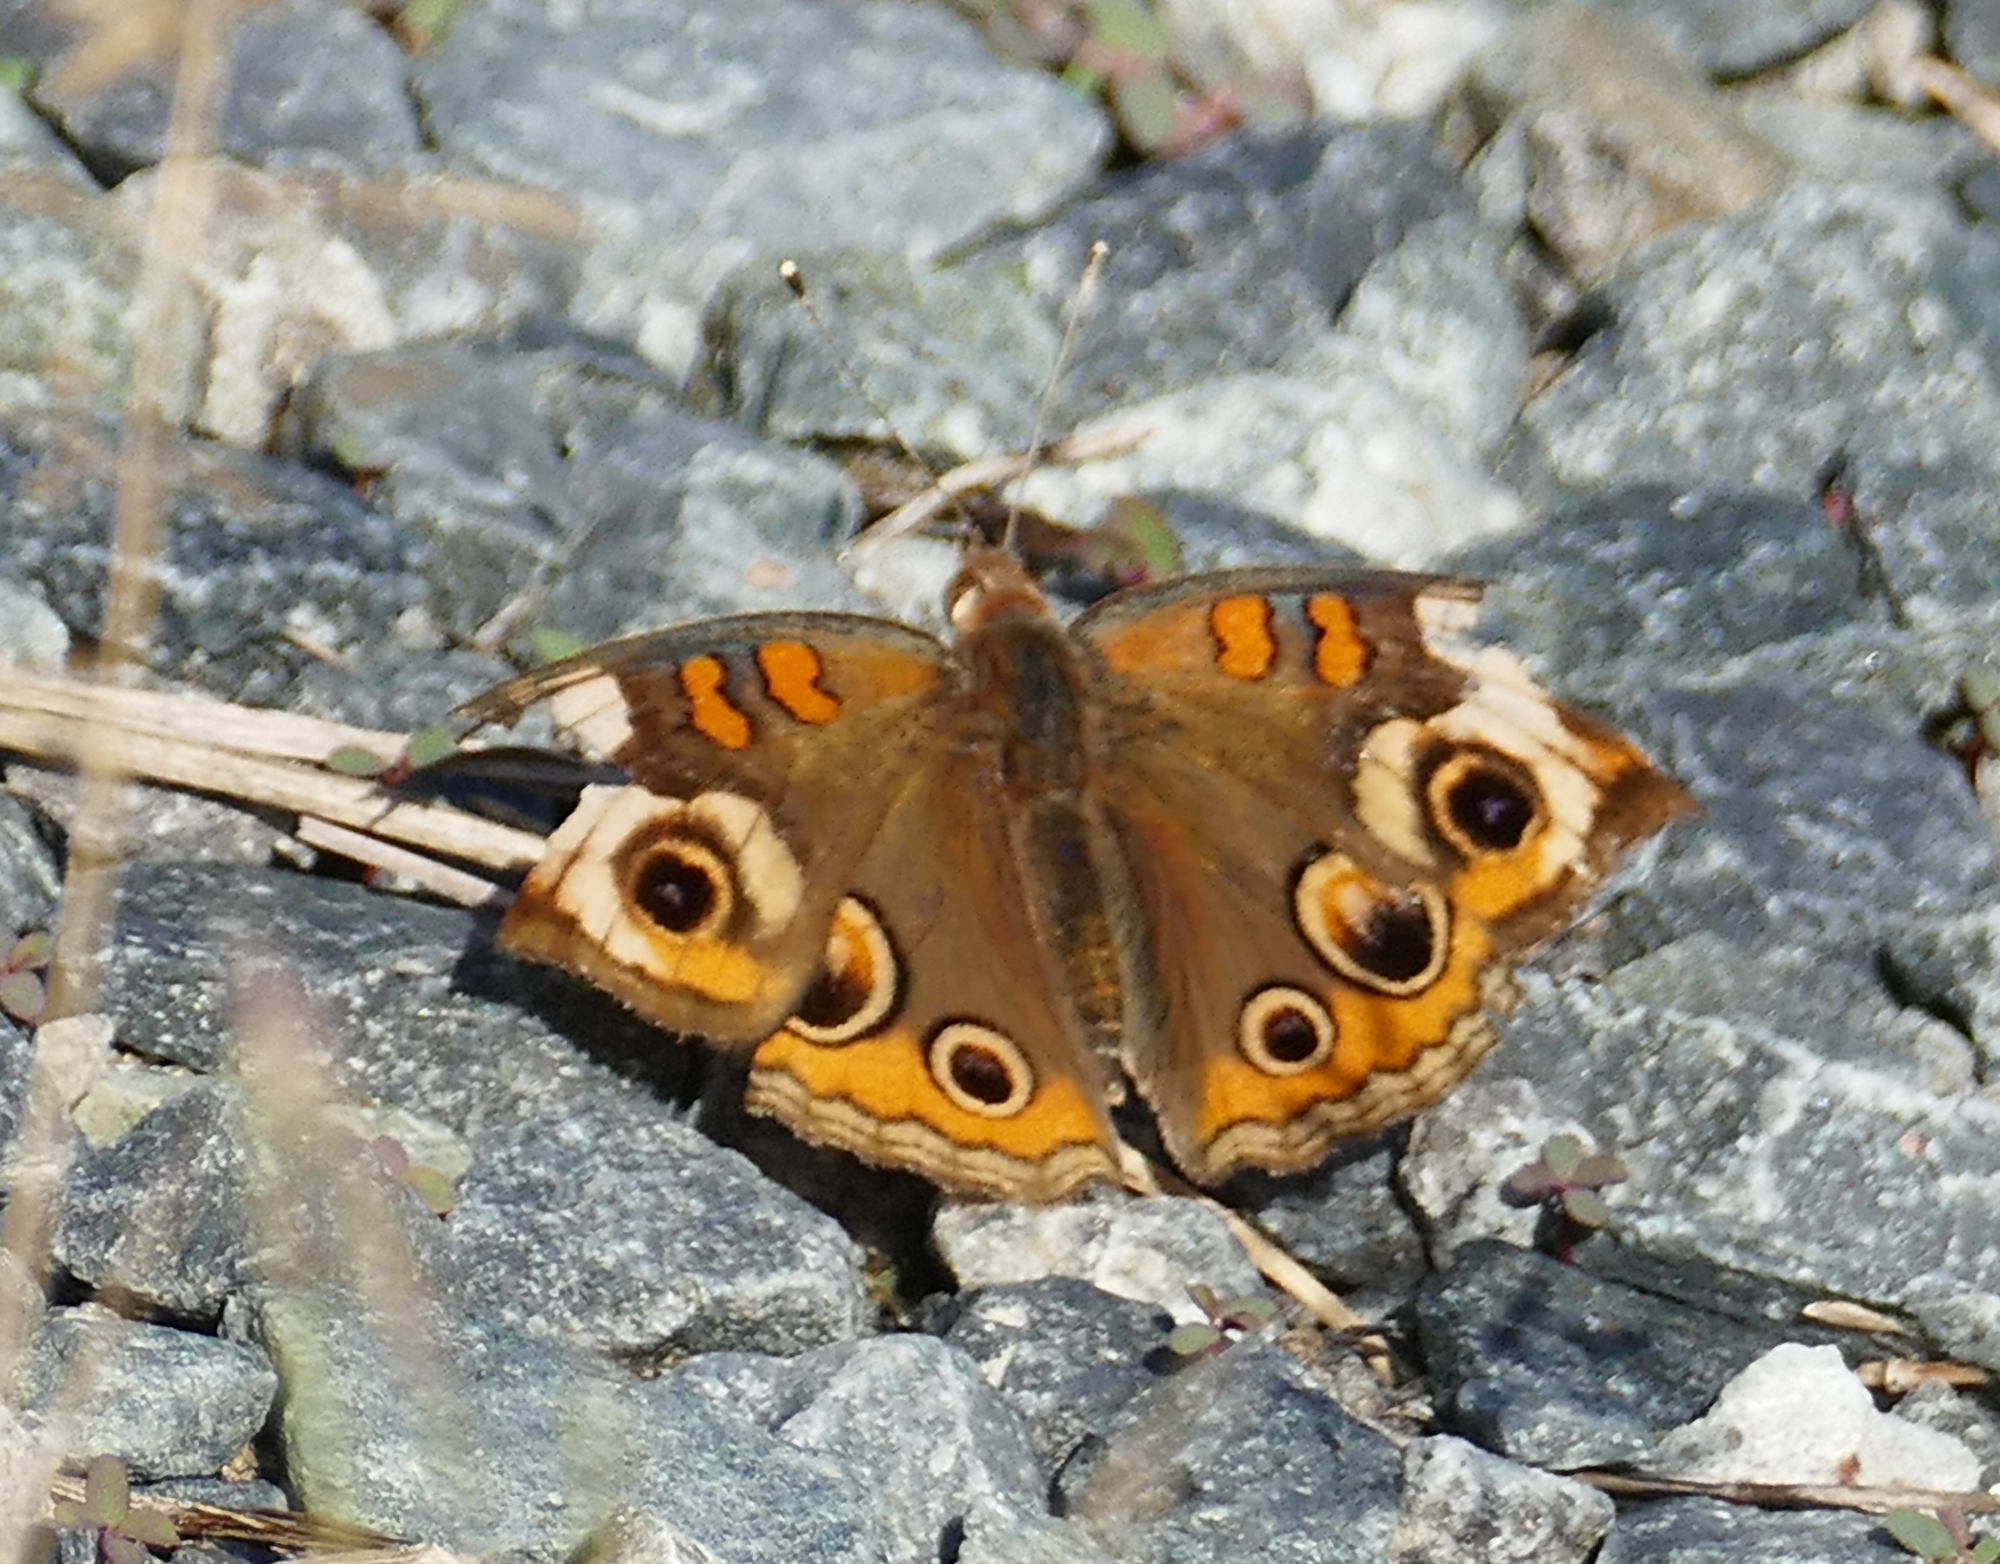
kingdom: Animalia
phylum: Arthropoda
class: Insecta
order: Lepidoptera
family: Nymphalidae
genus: Junonia
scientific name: Junonia coenia
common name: Common buckeye
